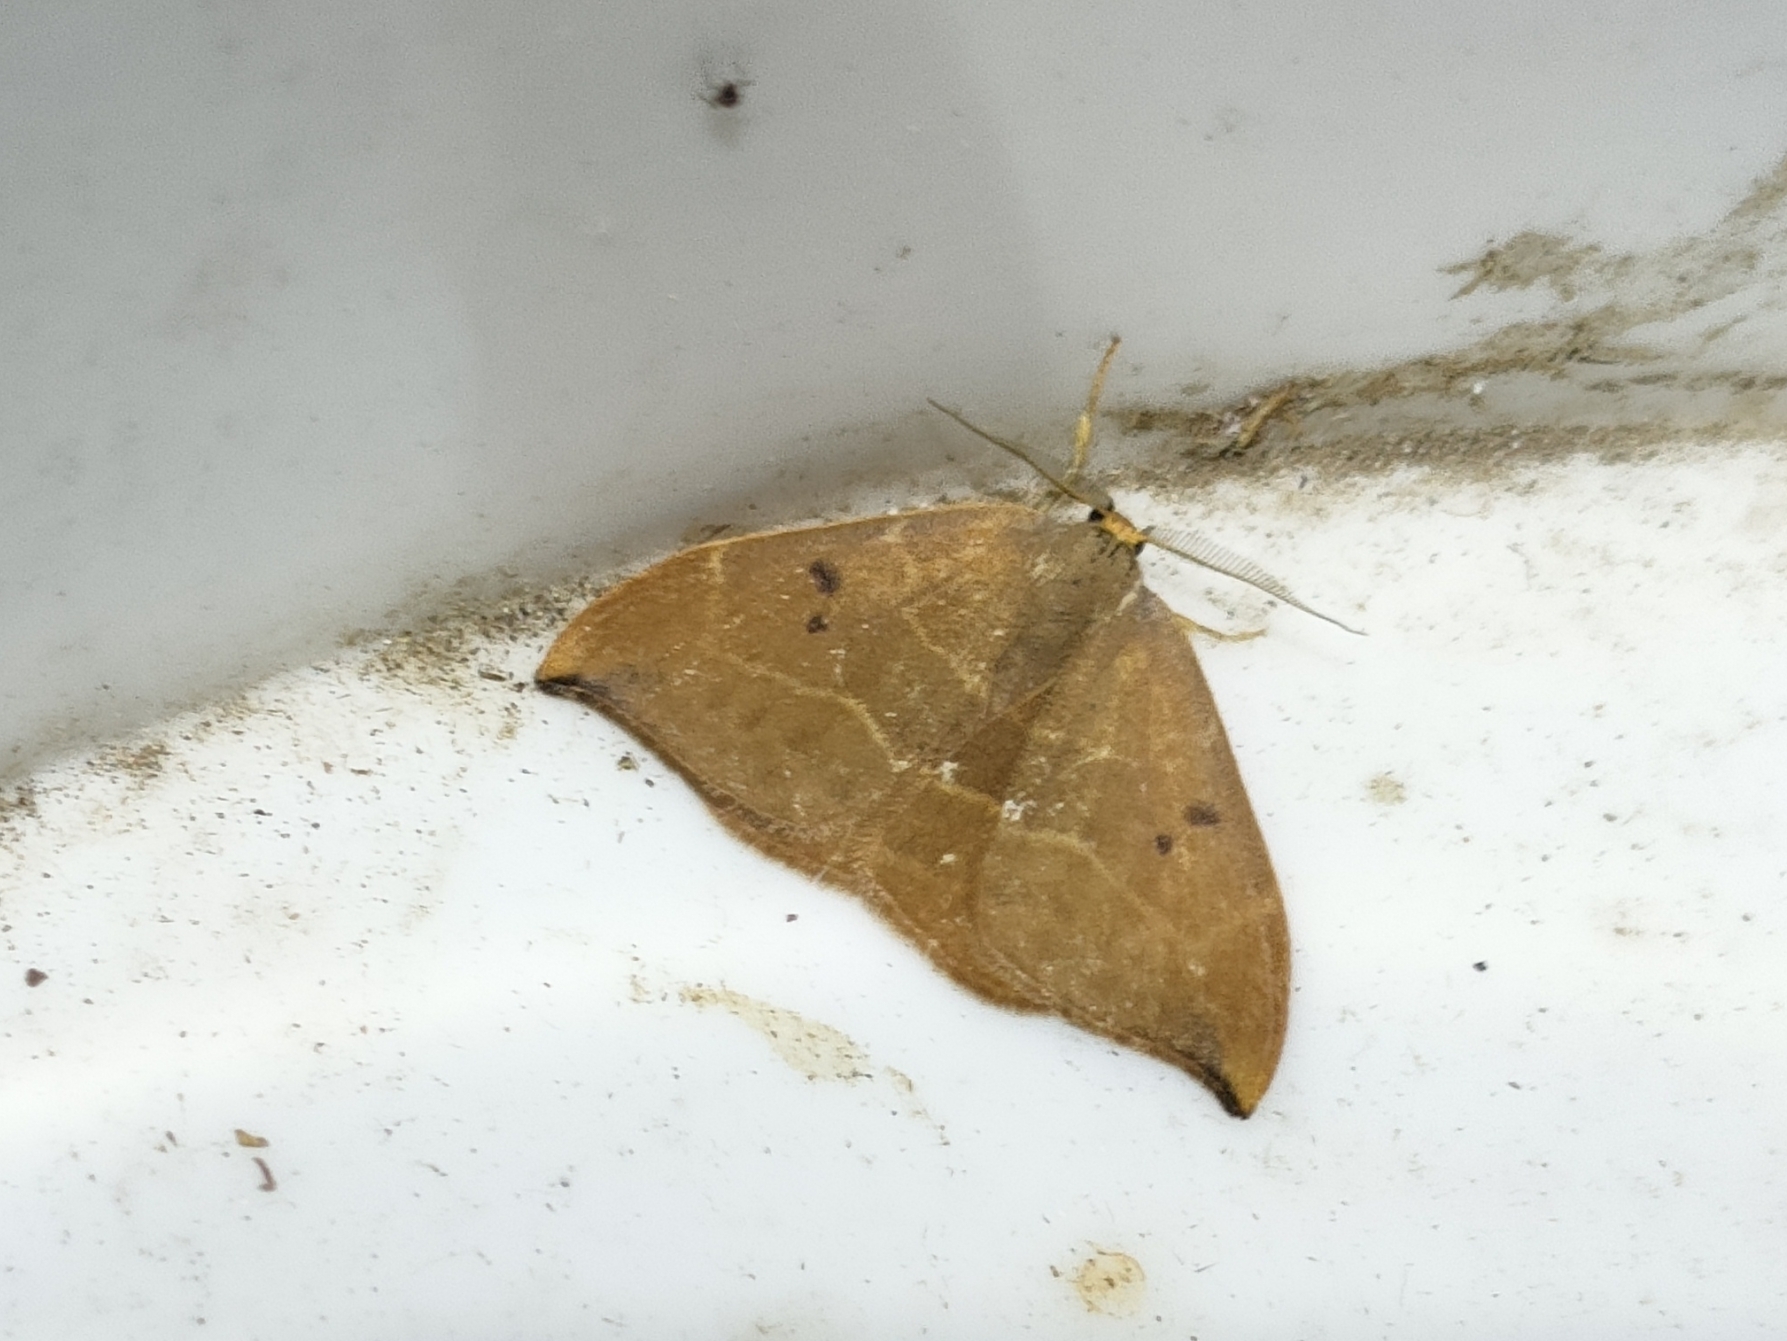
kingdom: Animalia
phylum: Arthropoda
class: Insecta
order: Lepidoptera
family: Drepanidae
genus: Watsonalla
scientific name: Watsonalla binaria
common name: Oak hook-tip
